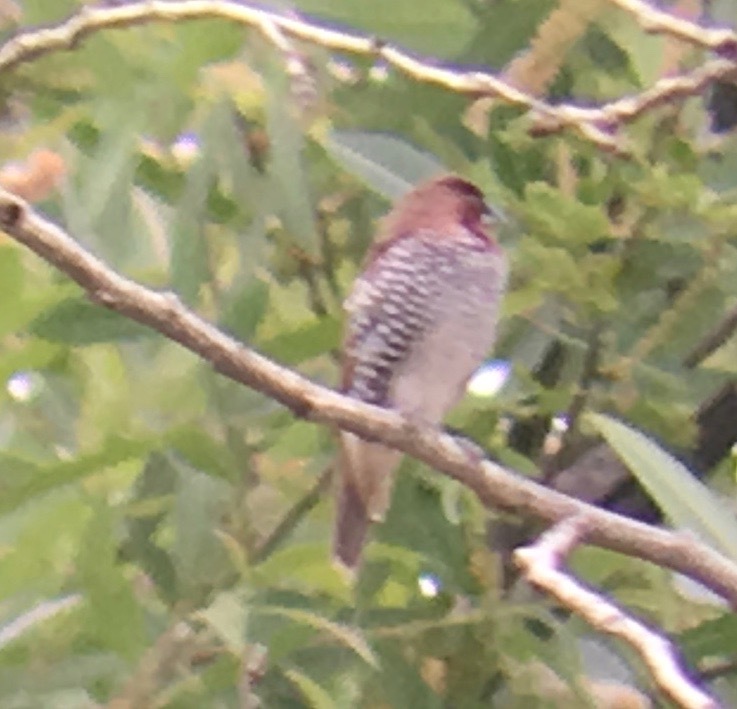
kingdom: Animalia
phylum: Chordata
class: Aves
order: Passeriformes
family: Estrildidae
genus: Lonchura
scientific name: Lonchura punctulata
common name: Scaly-breasted munia
